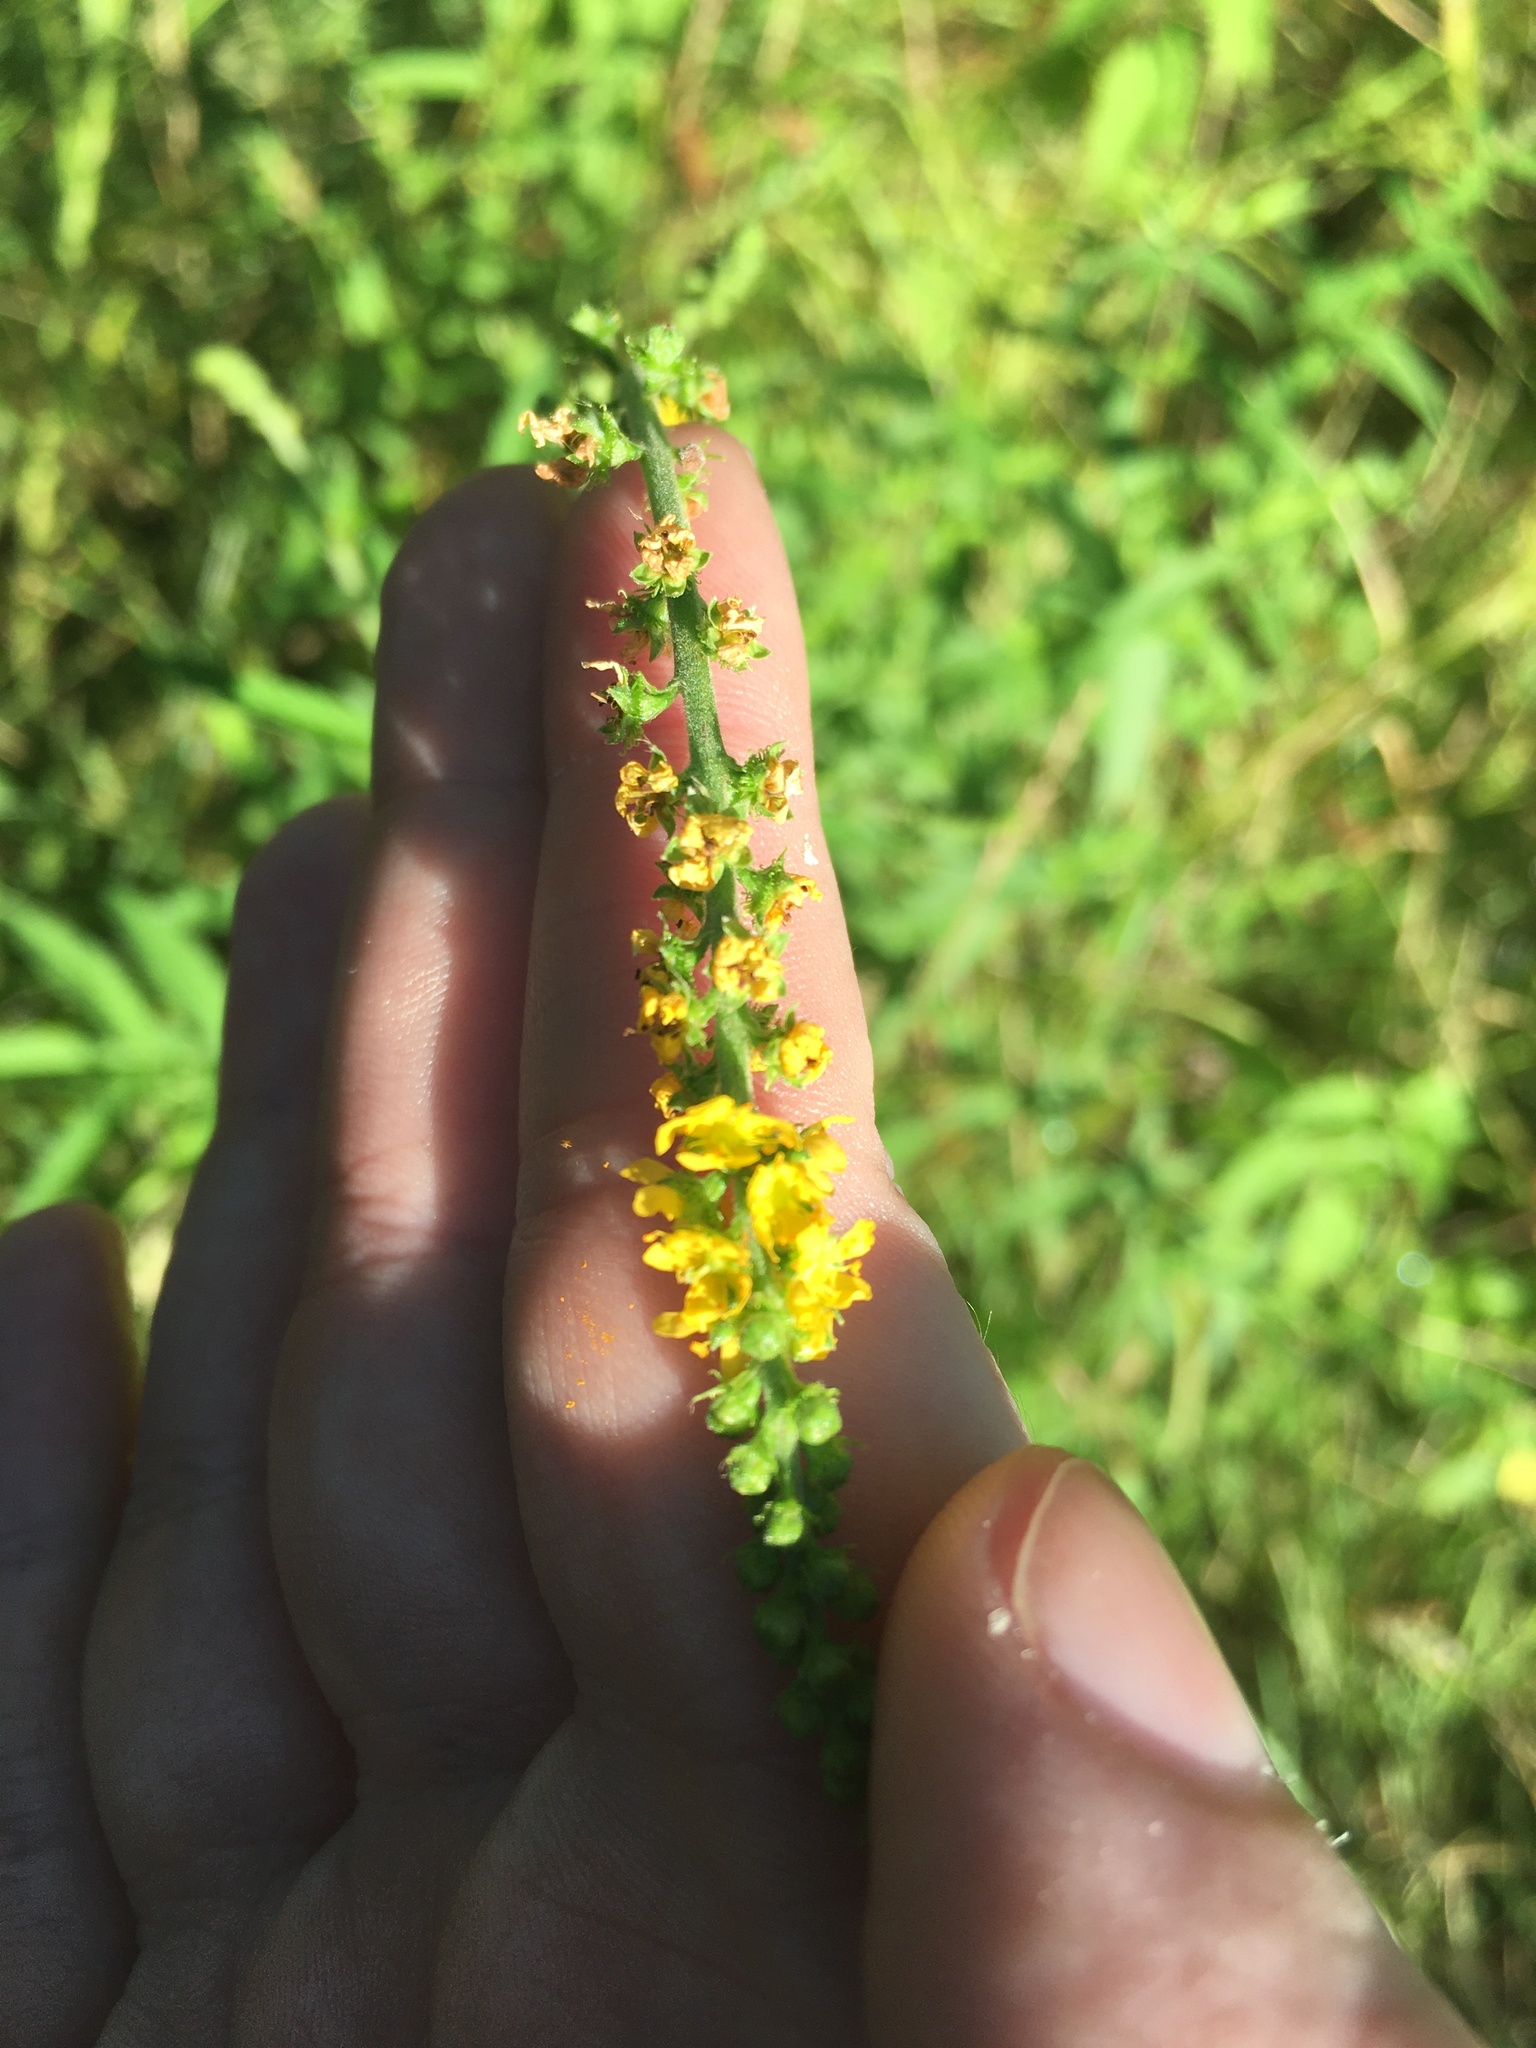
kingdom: Plantae
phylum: Tracheophyta
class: Magnoliopsida
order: Rosales
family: Rosaceae
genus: Agrimonia
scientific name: Agrimonia parviflora
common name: Harvest-lice
